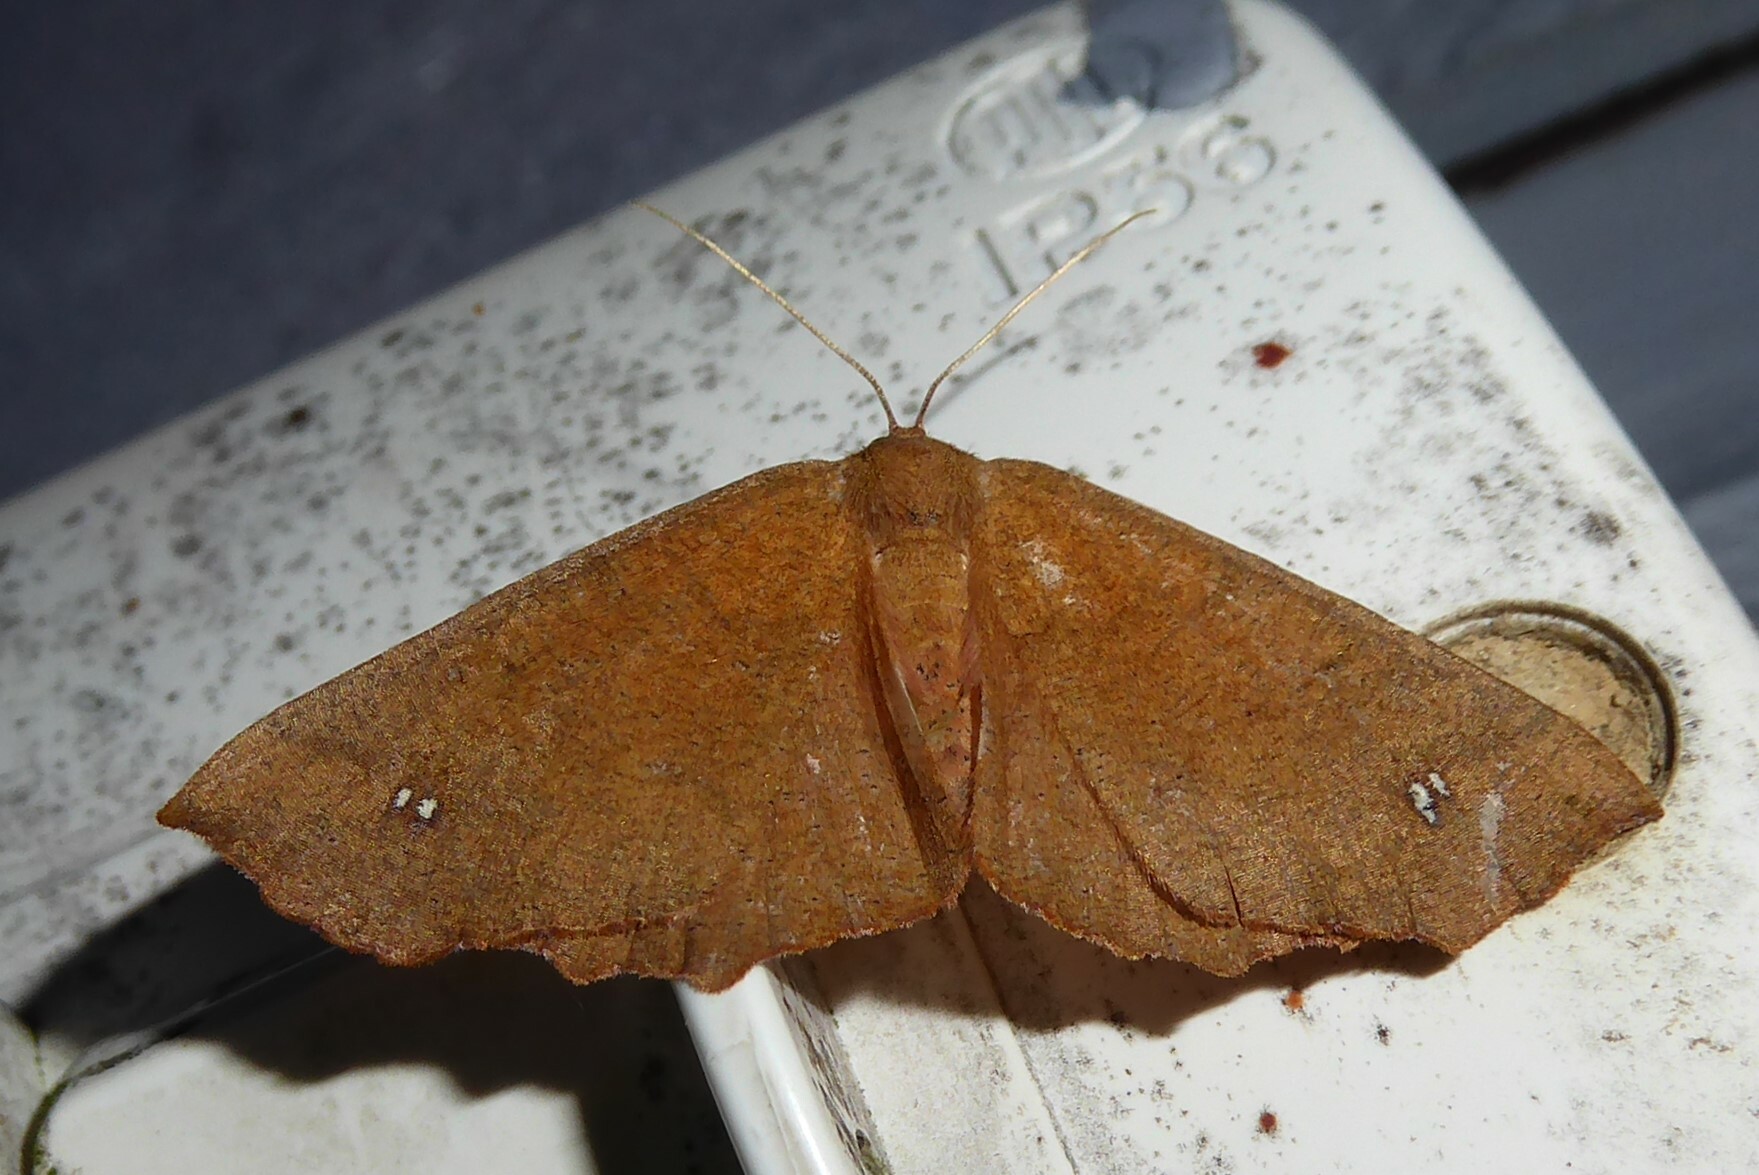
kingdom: Animalia
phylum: Arthropoda
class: Insecta
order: Lepidoptera
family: Geometridae
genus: Xyridacma
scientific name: Xyridacma ustaria
